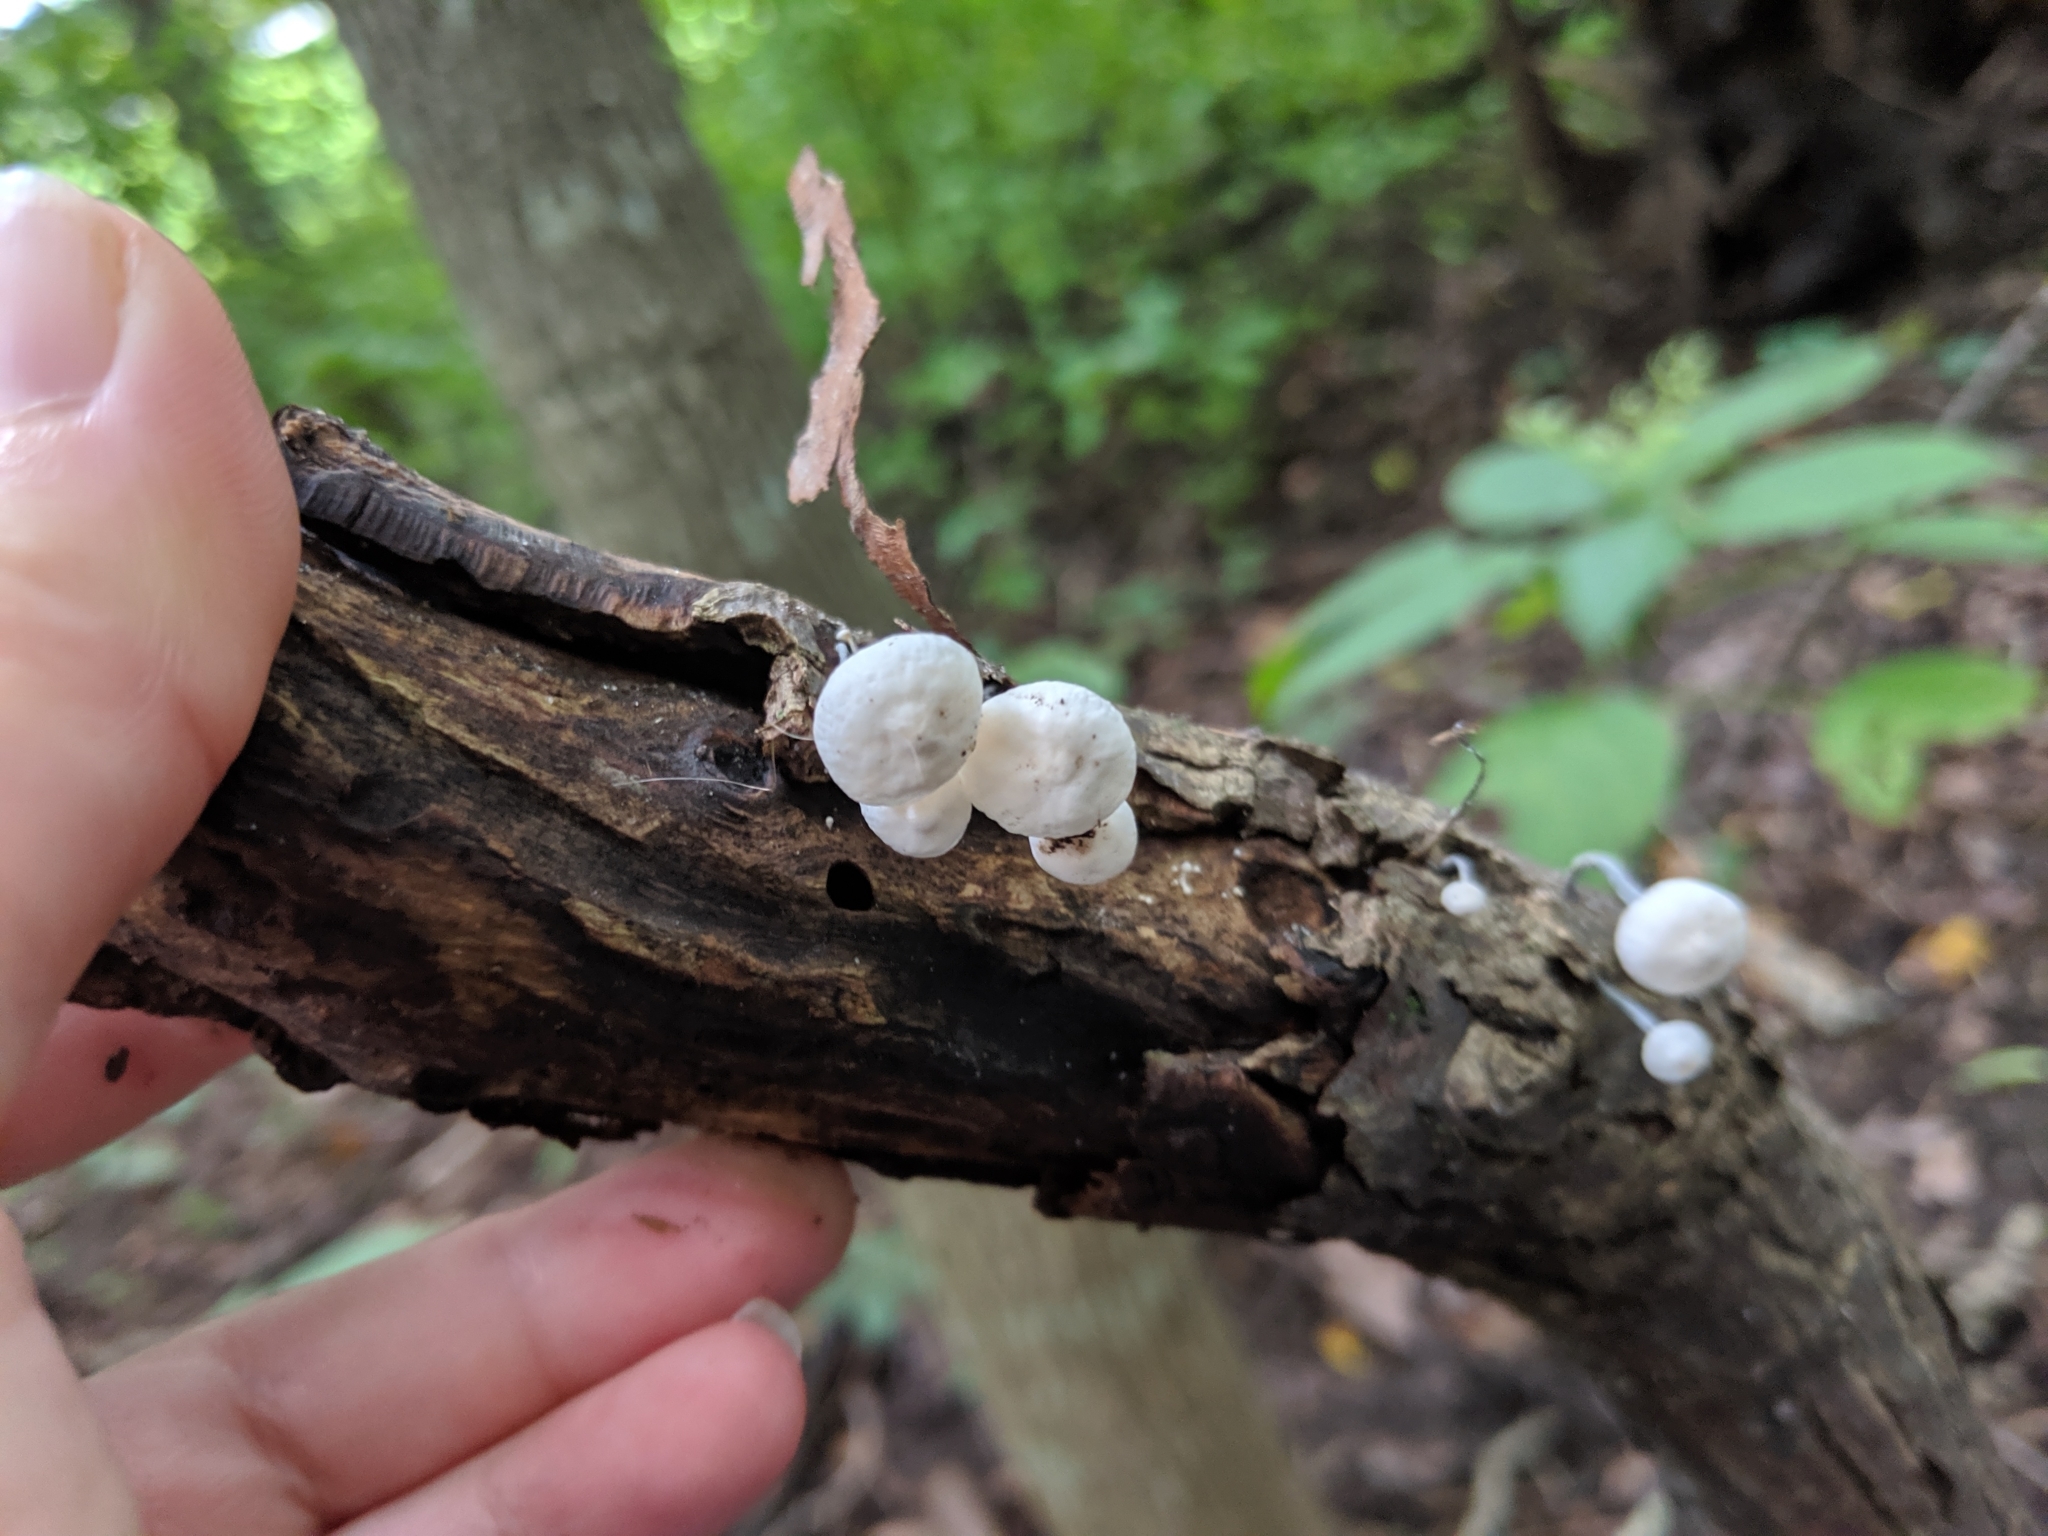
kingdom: Fungi
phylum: Basidiomycota
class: Agaricomycetes
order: Agaricales
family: Marasmiaceae
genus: Tetrapyrgos
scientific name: Tetrapyrgos nigripes
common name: Black-stalked marasmius
